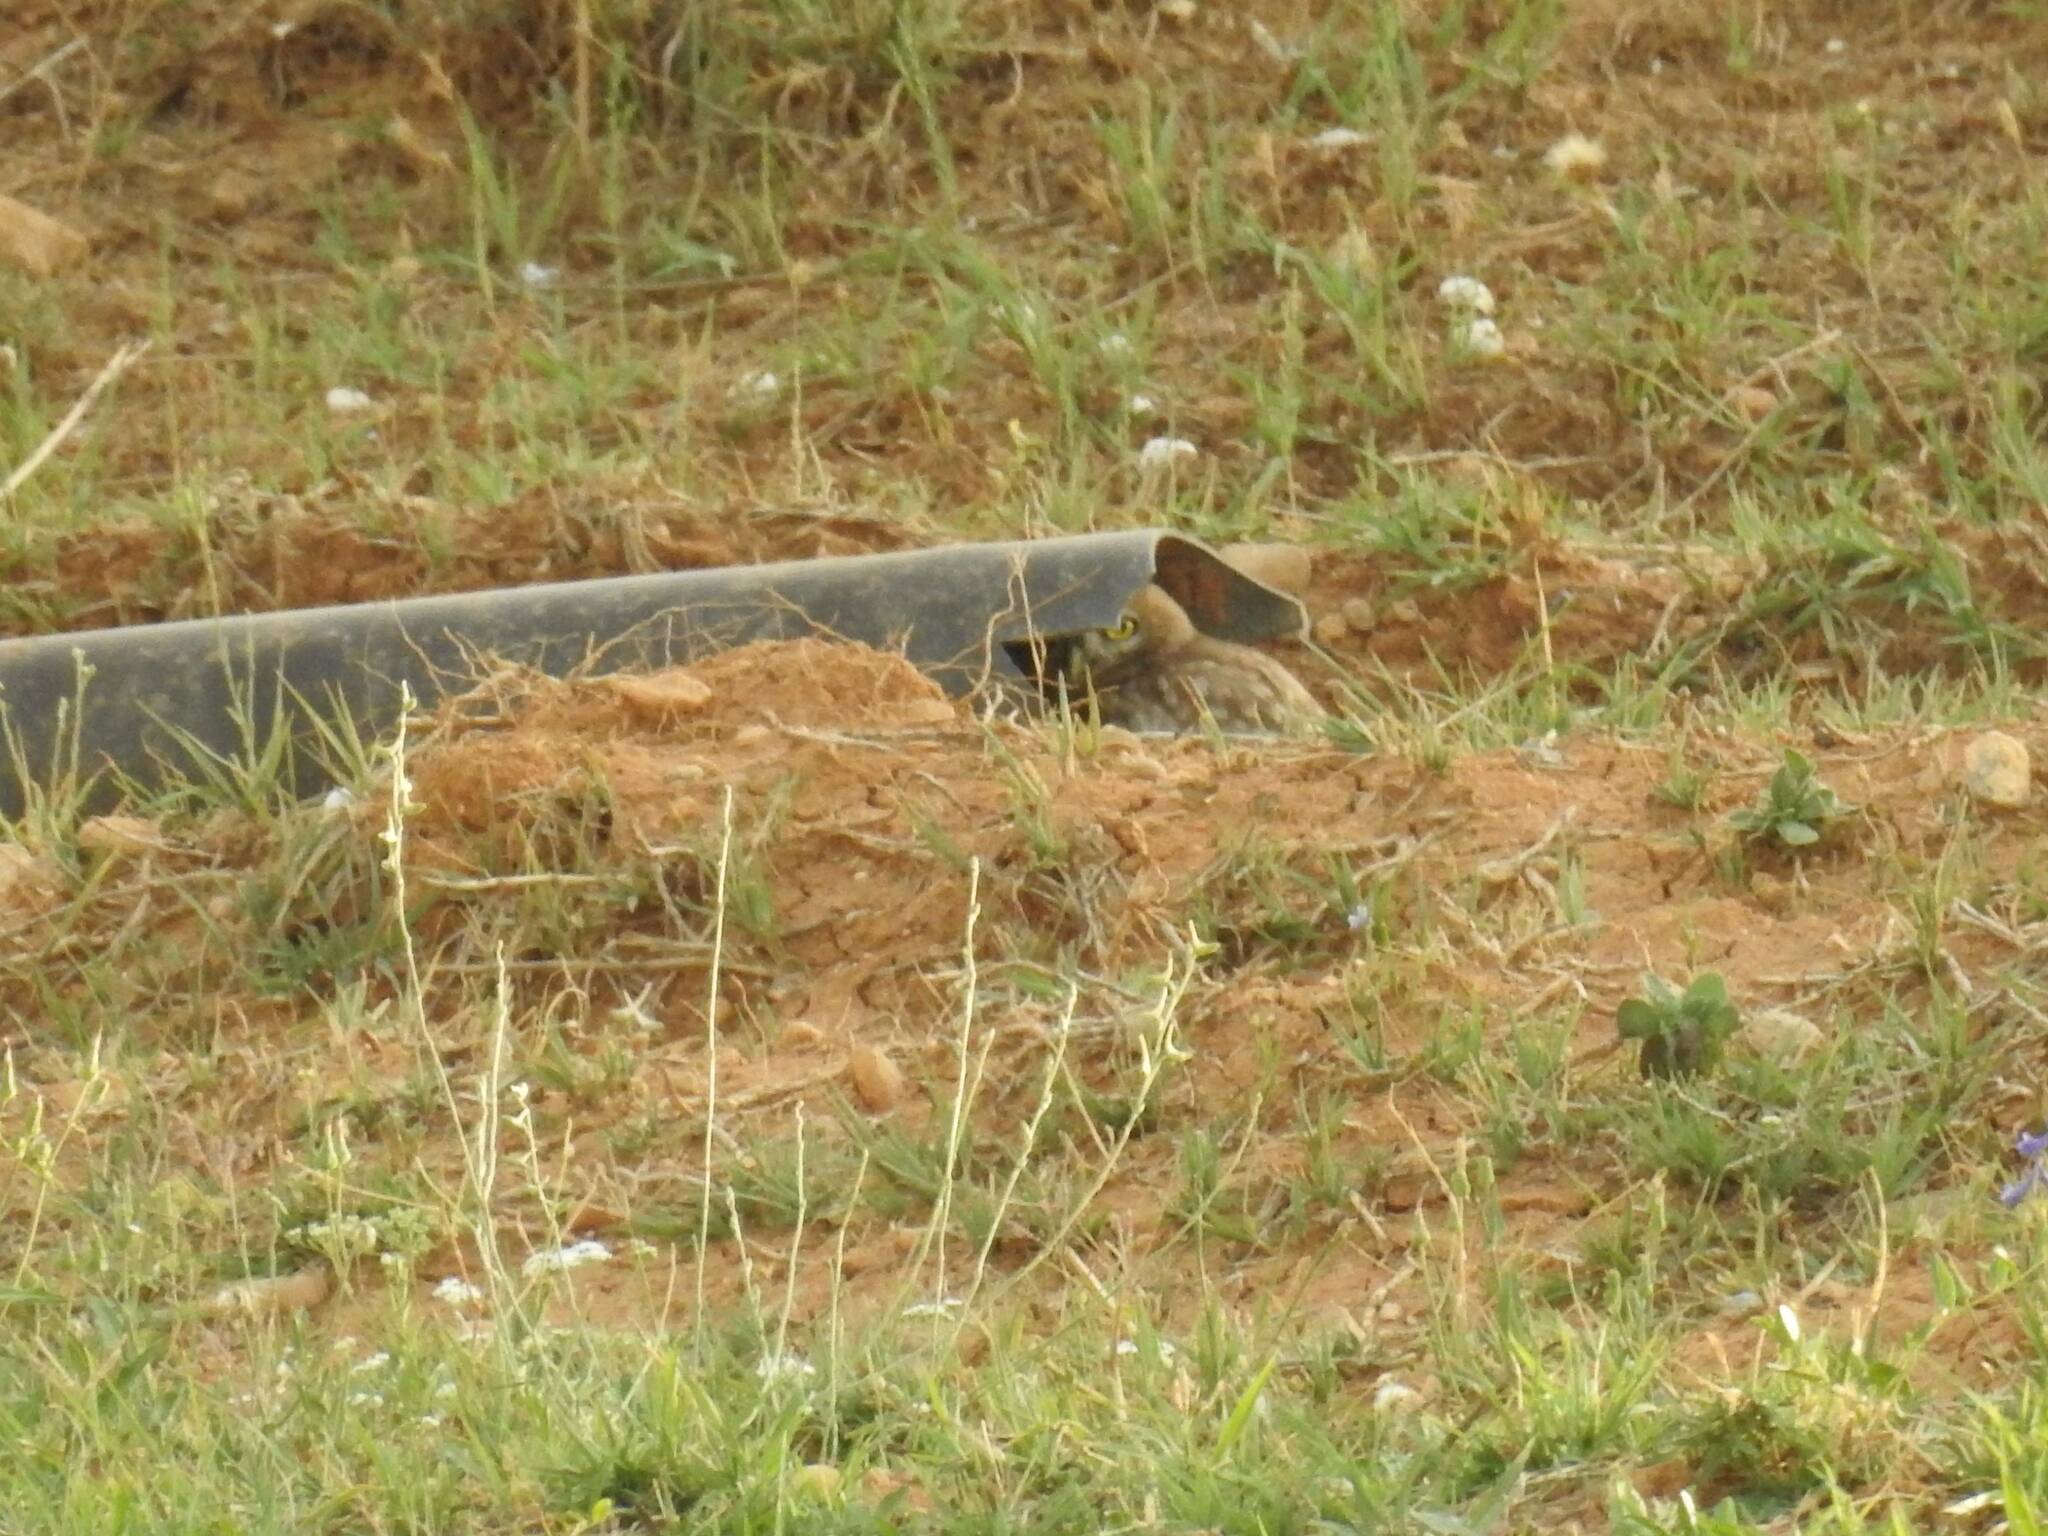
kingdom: Animalia
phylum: Chordata
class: Aves
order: Strigiformes
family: Strigidae
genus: Athene
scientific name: Athene noctua
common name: Little owl
